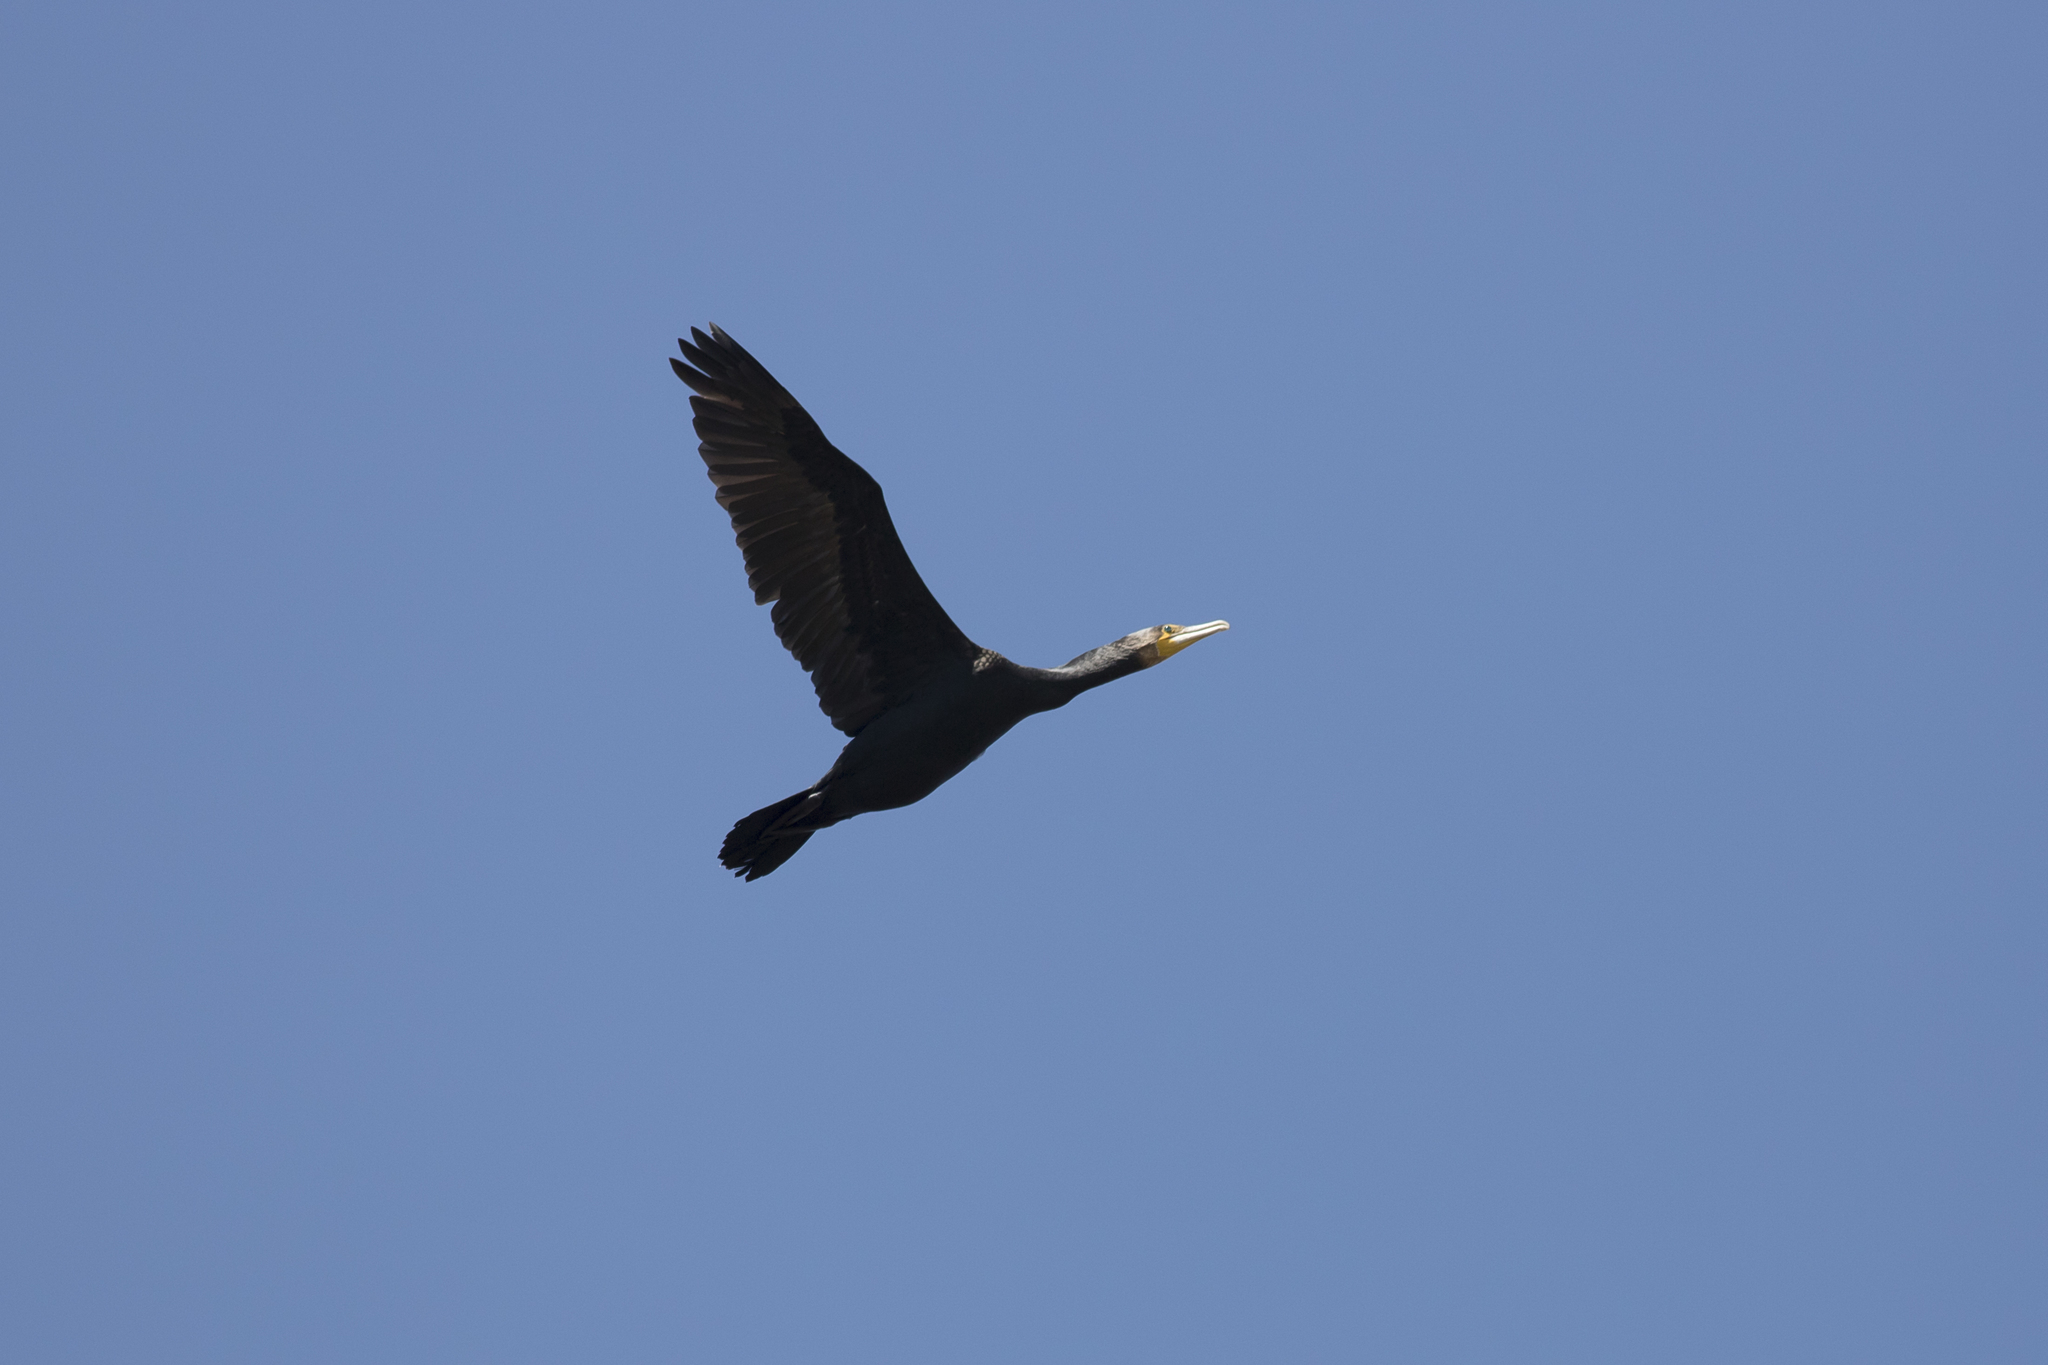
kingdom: Animalia
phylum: Chordata
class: Aves
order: Suliformes
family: Phalacrocoracidae
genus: Phalacrocorax
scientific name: Phalacrocorax carbo
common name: Great cormorant
